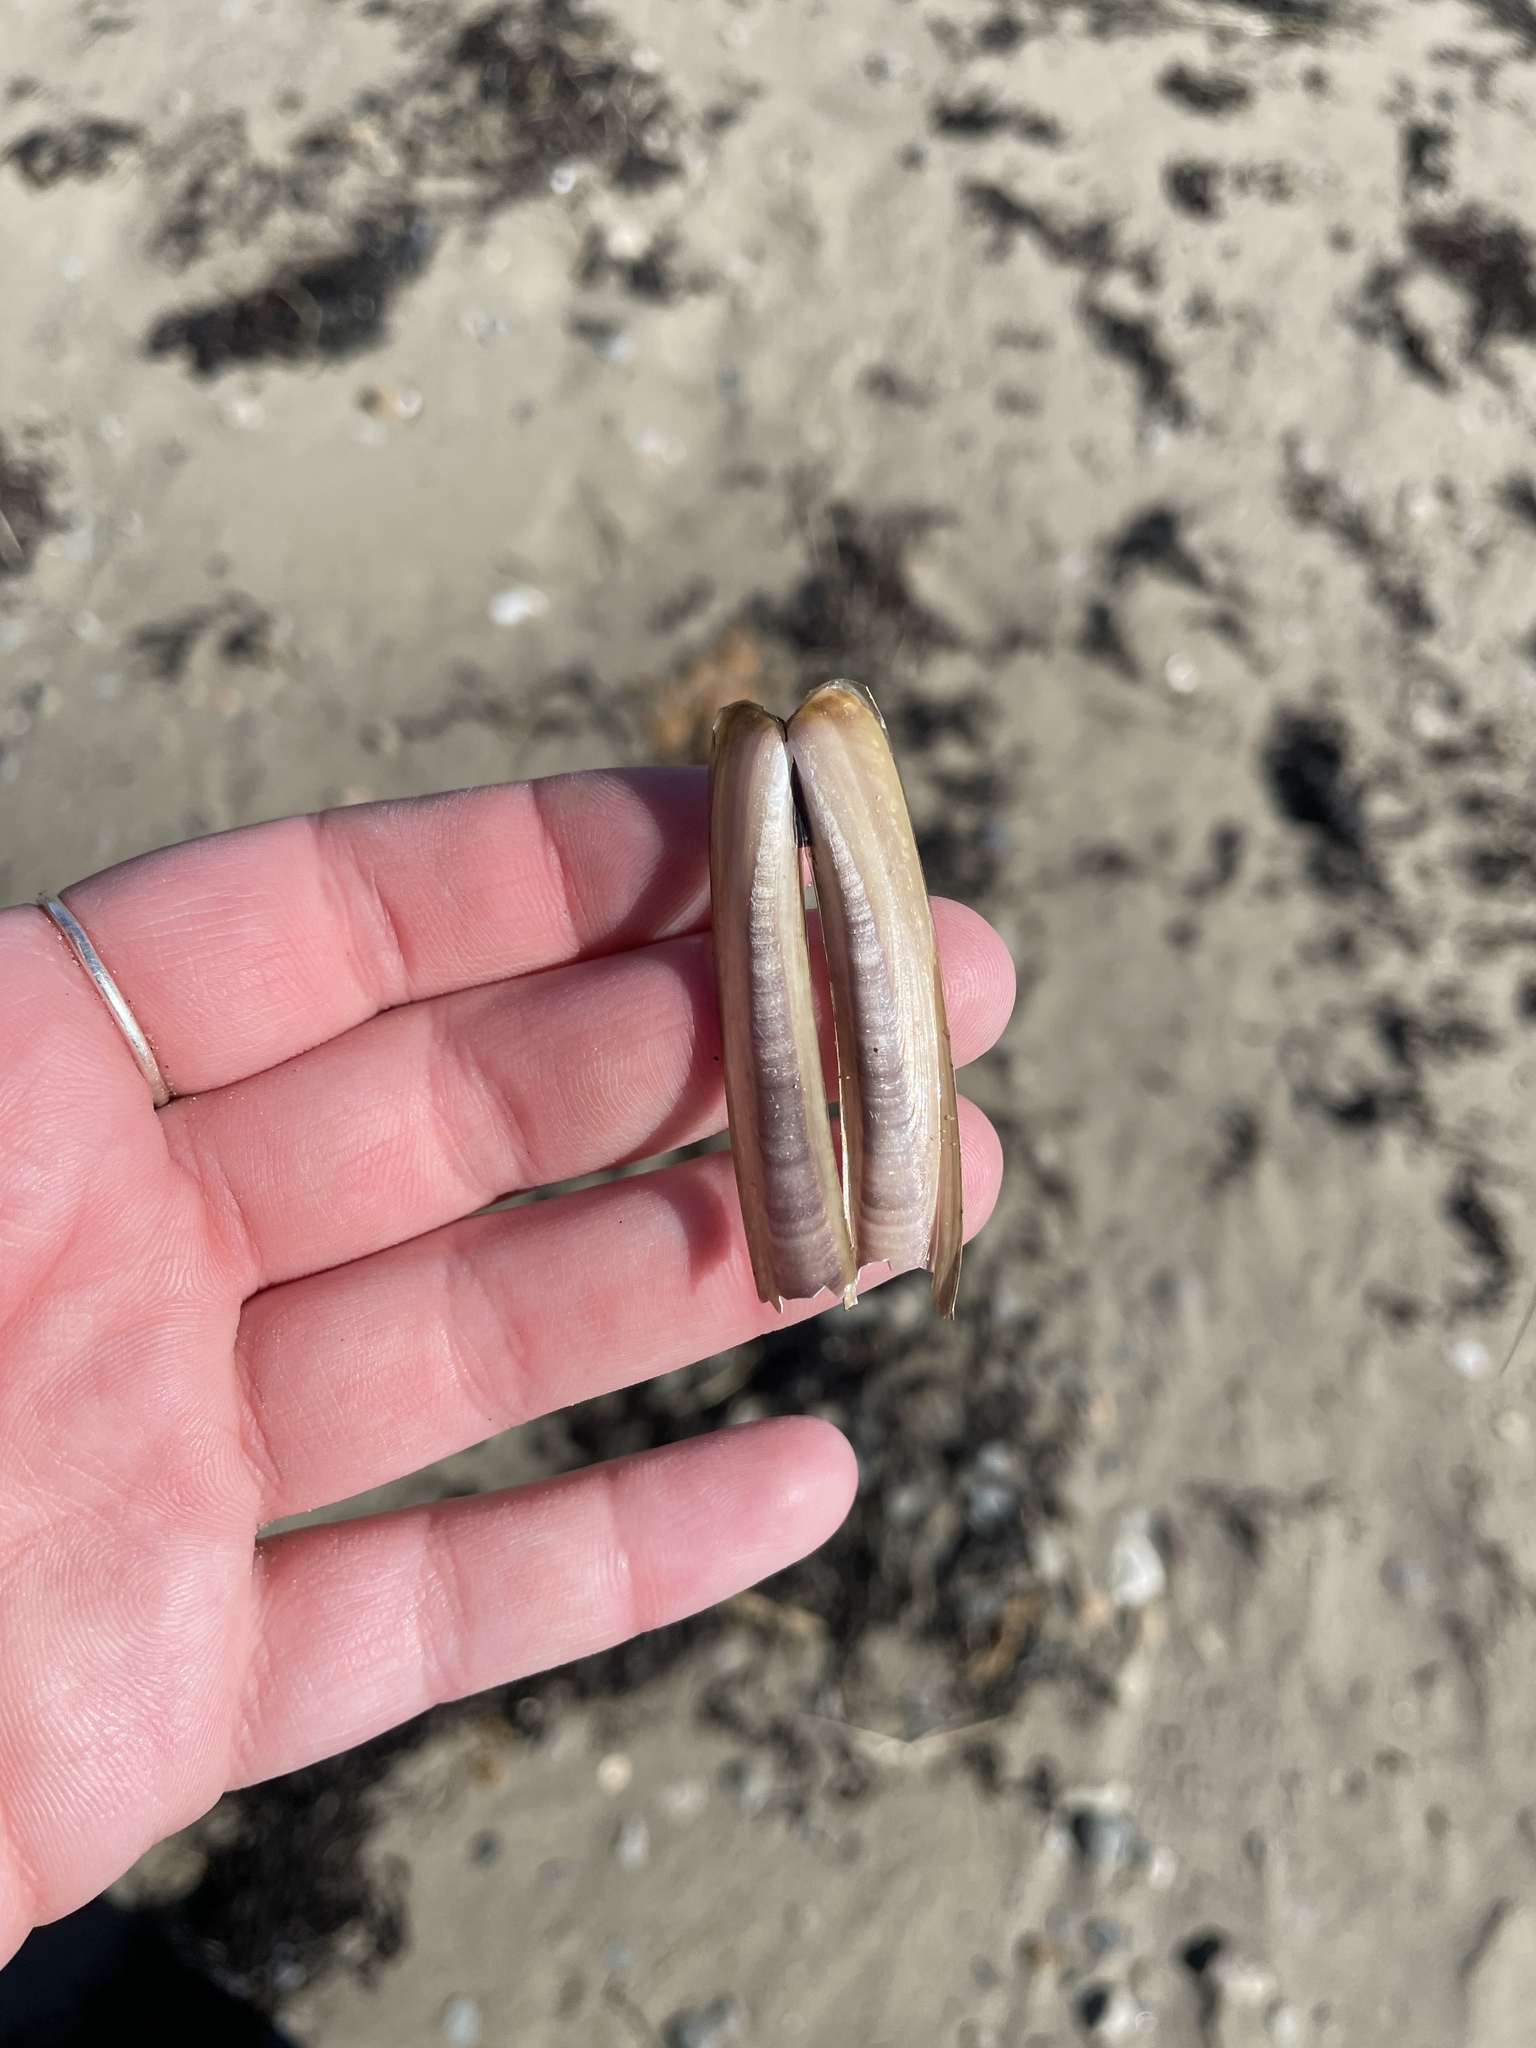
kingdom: Animalia
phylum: Mollusca
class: Bivalvia
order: Adapedonta
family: Pharidae
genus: Ensis
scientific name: Ensis leei
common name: American jack knife clam
